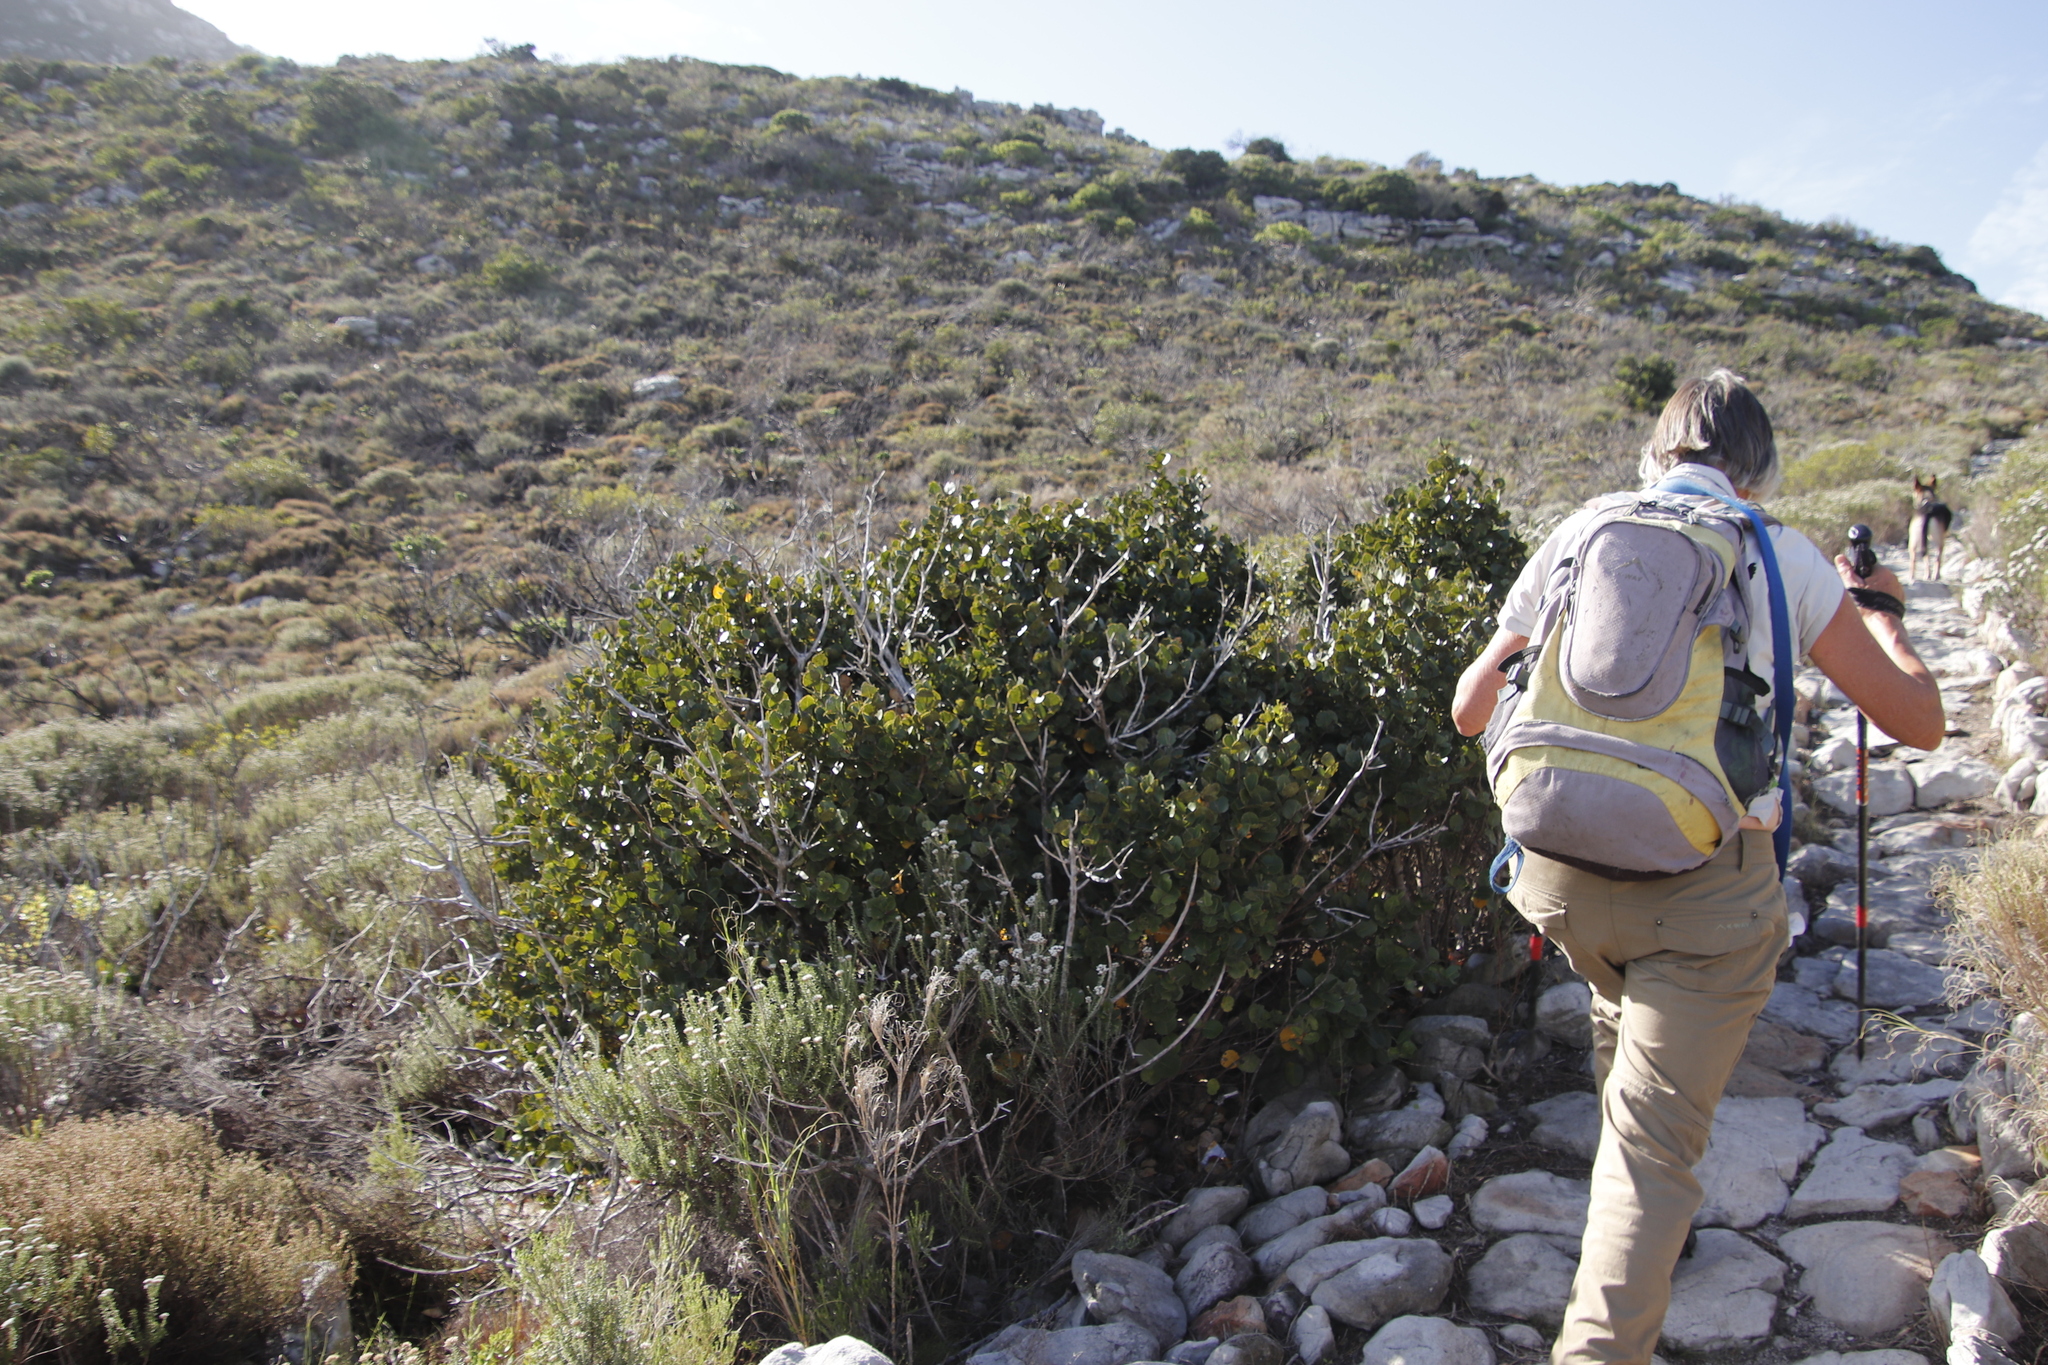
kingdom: Plantae
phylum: Tracheophyta
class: Magnoliopsida
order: Celastrales
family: Celastraceae
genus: Cassine
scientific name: Cassine peragua
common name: Cape saffron
